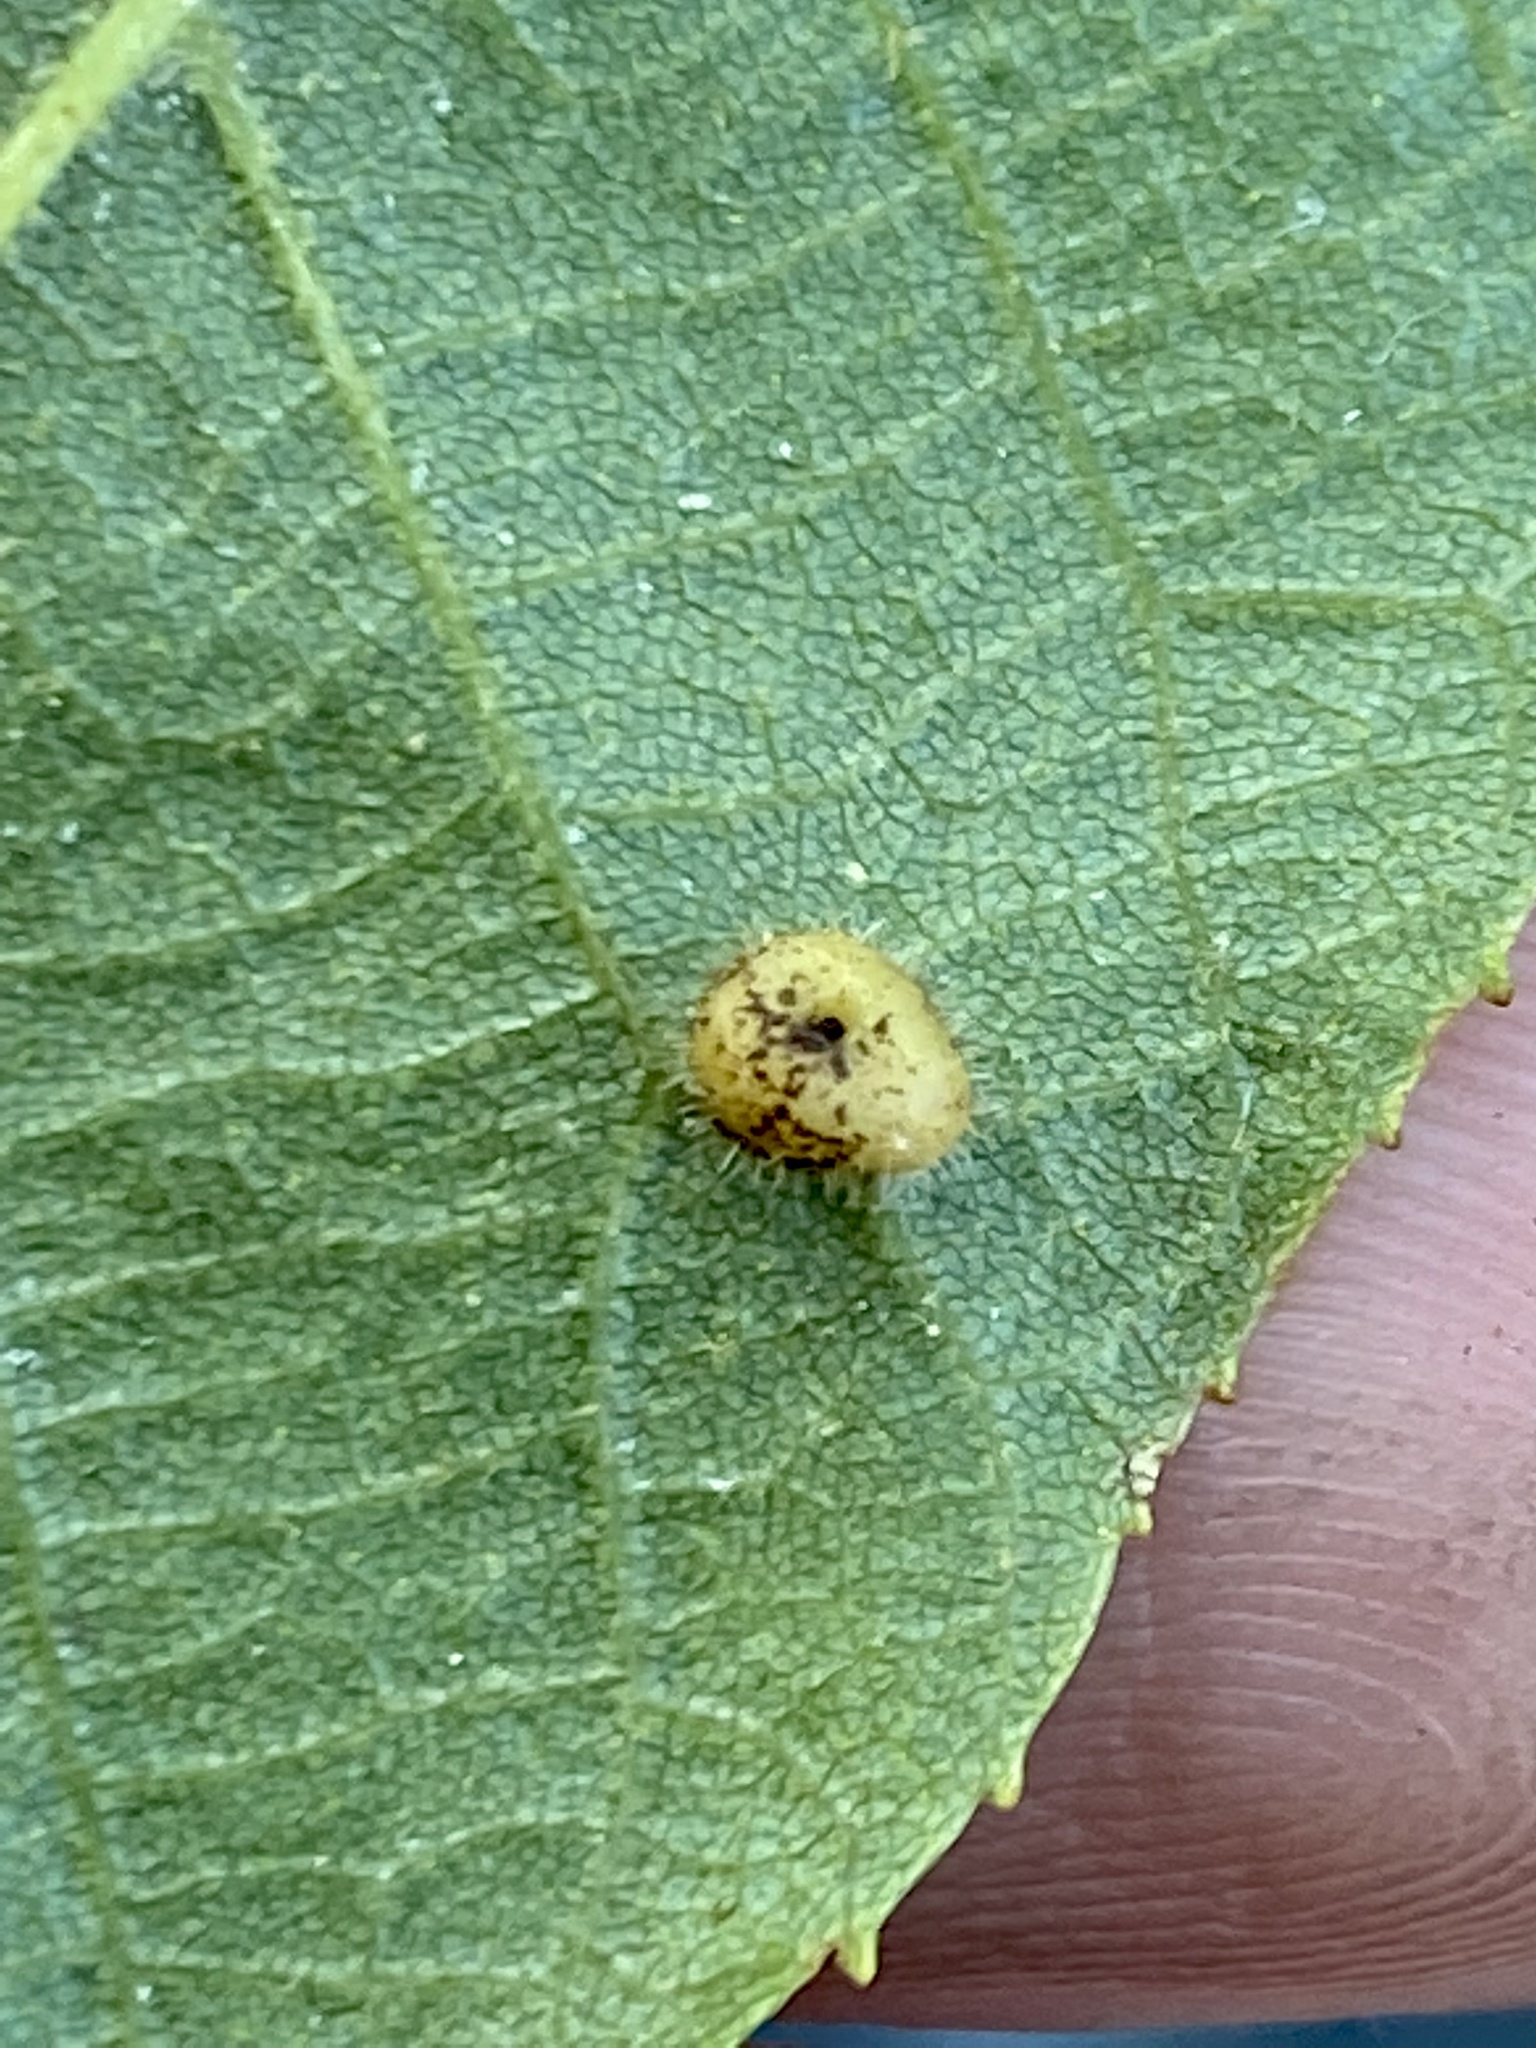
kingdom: Animalia
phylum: Arthropoda
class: Insecta
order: Diptera
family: Cecidomyiidae
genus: Caryomyia
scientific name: Caryomyia thompsoni
